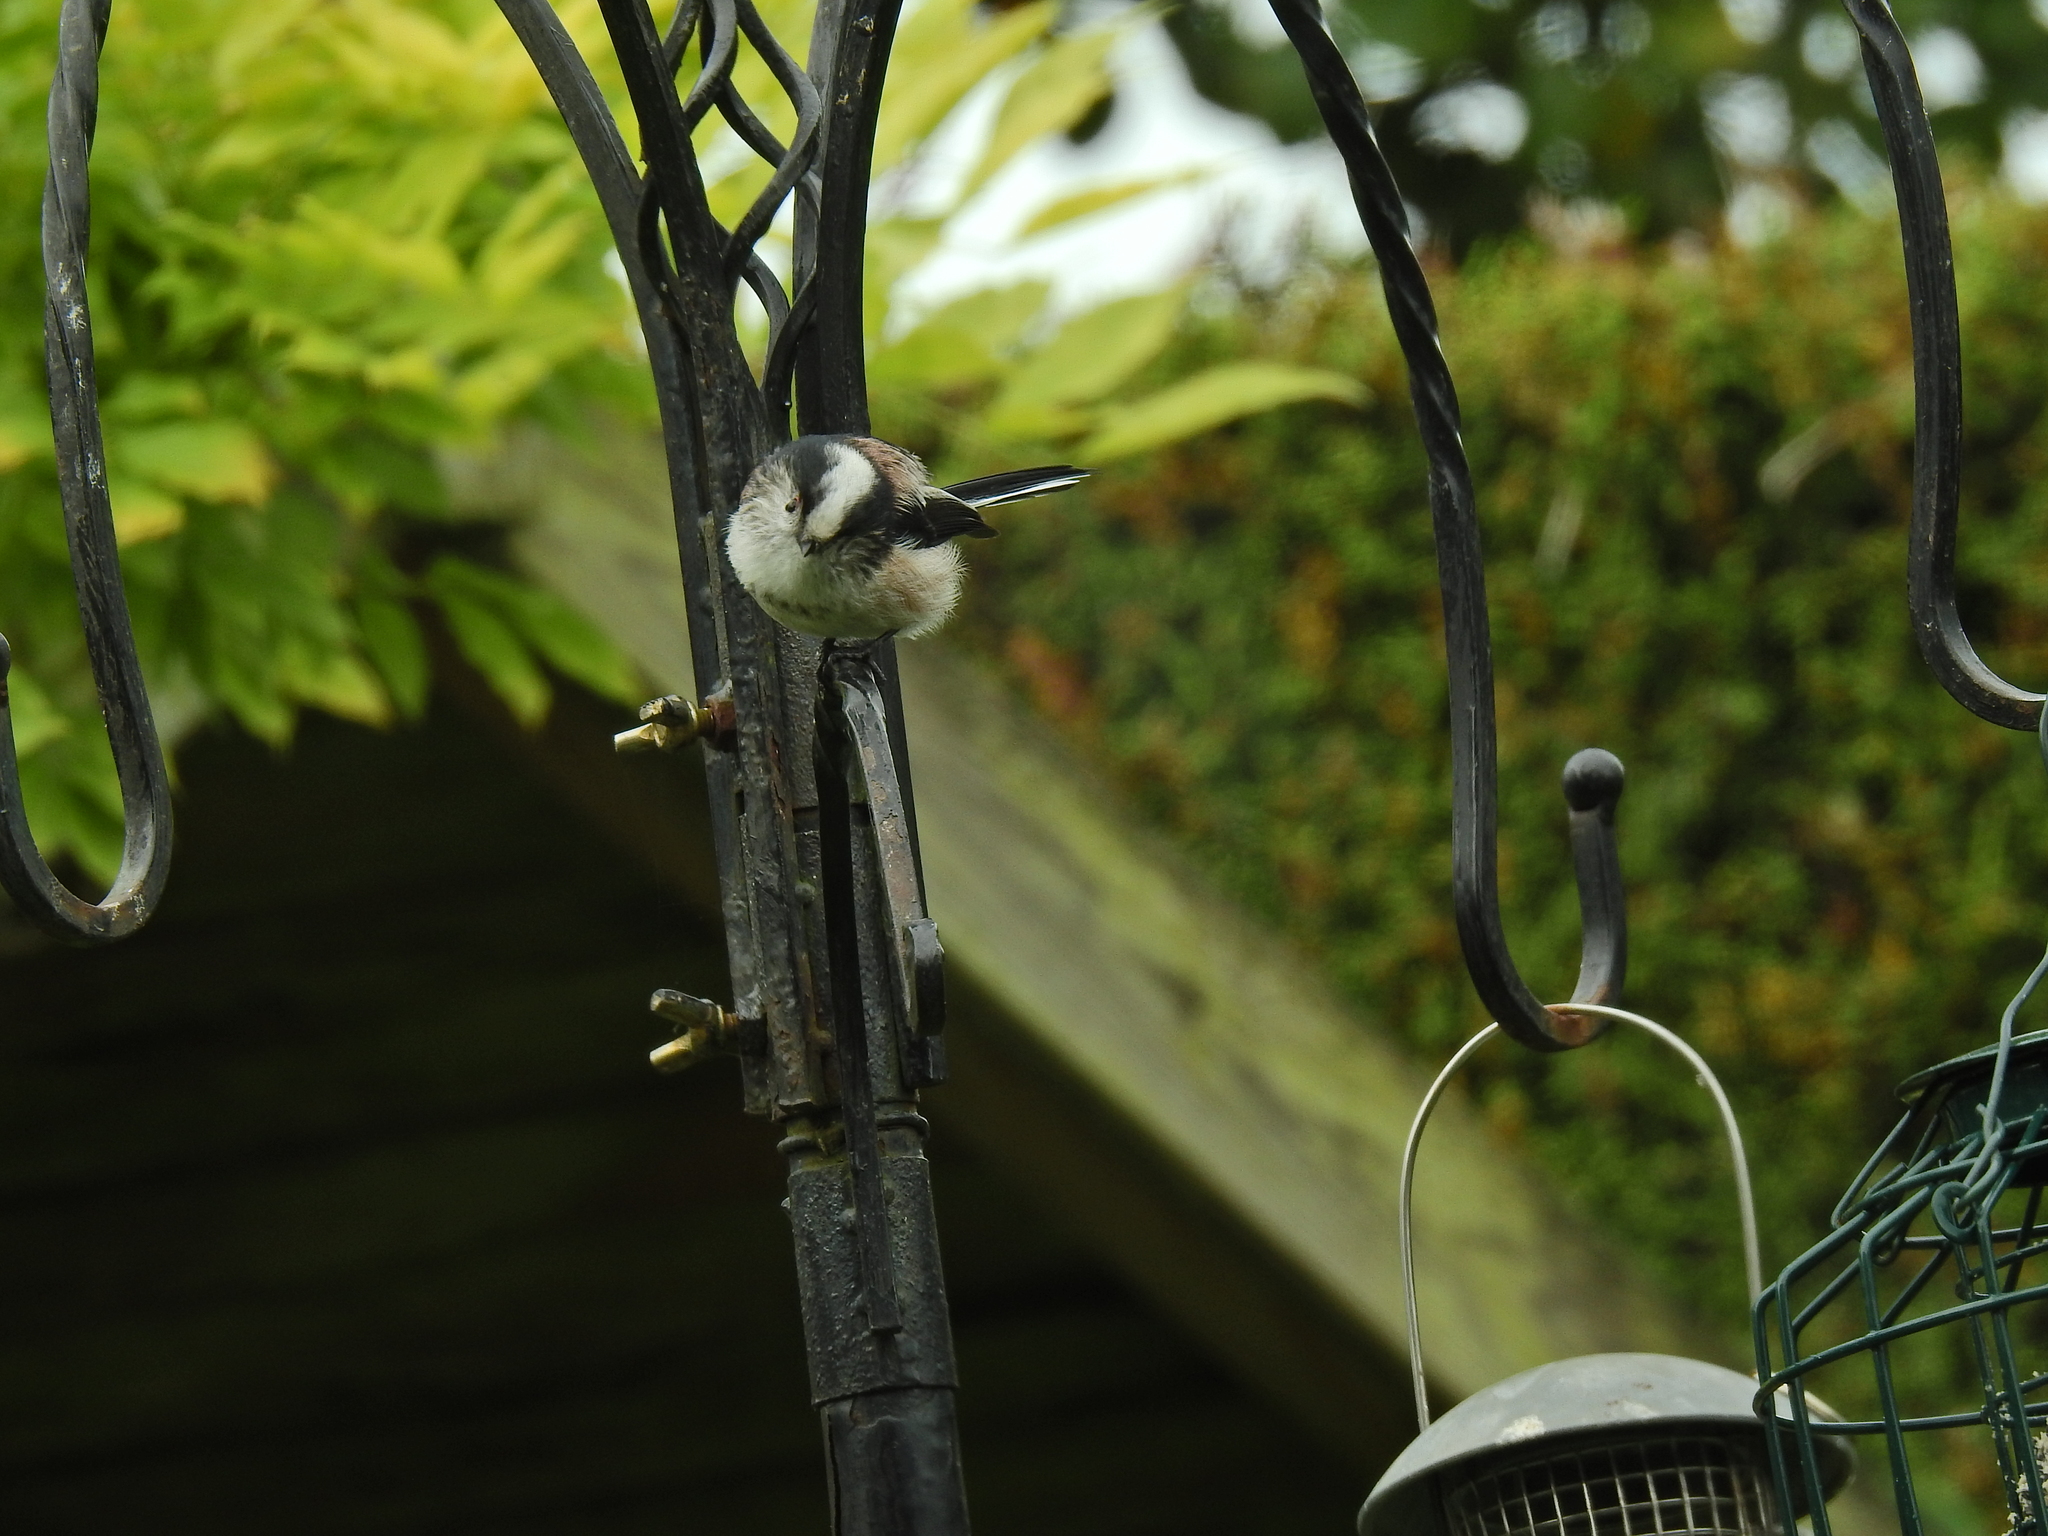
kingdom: Animalia
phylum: Chordata
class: Aves
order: Passeriformes
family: Aegithalidae
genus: Aegithalos
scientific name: Aegithalos caudatus
